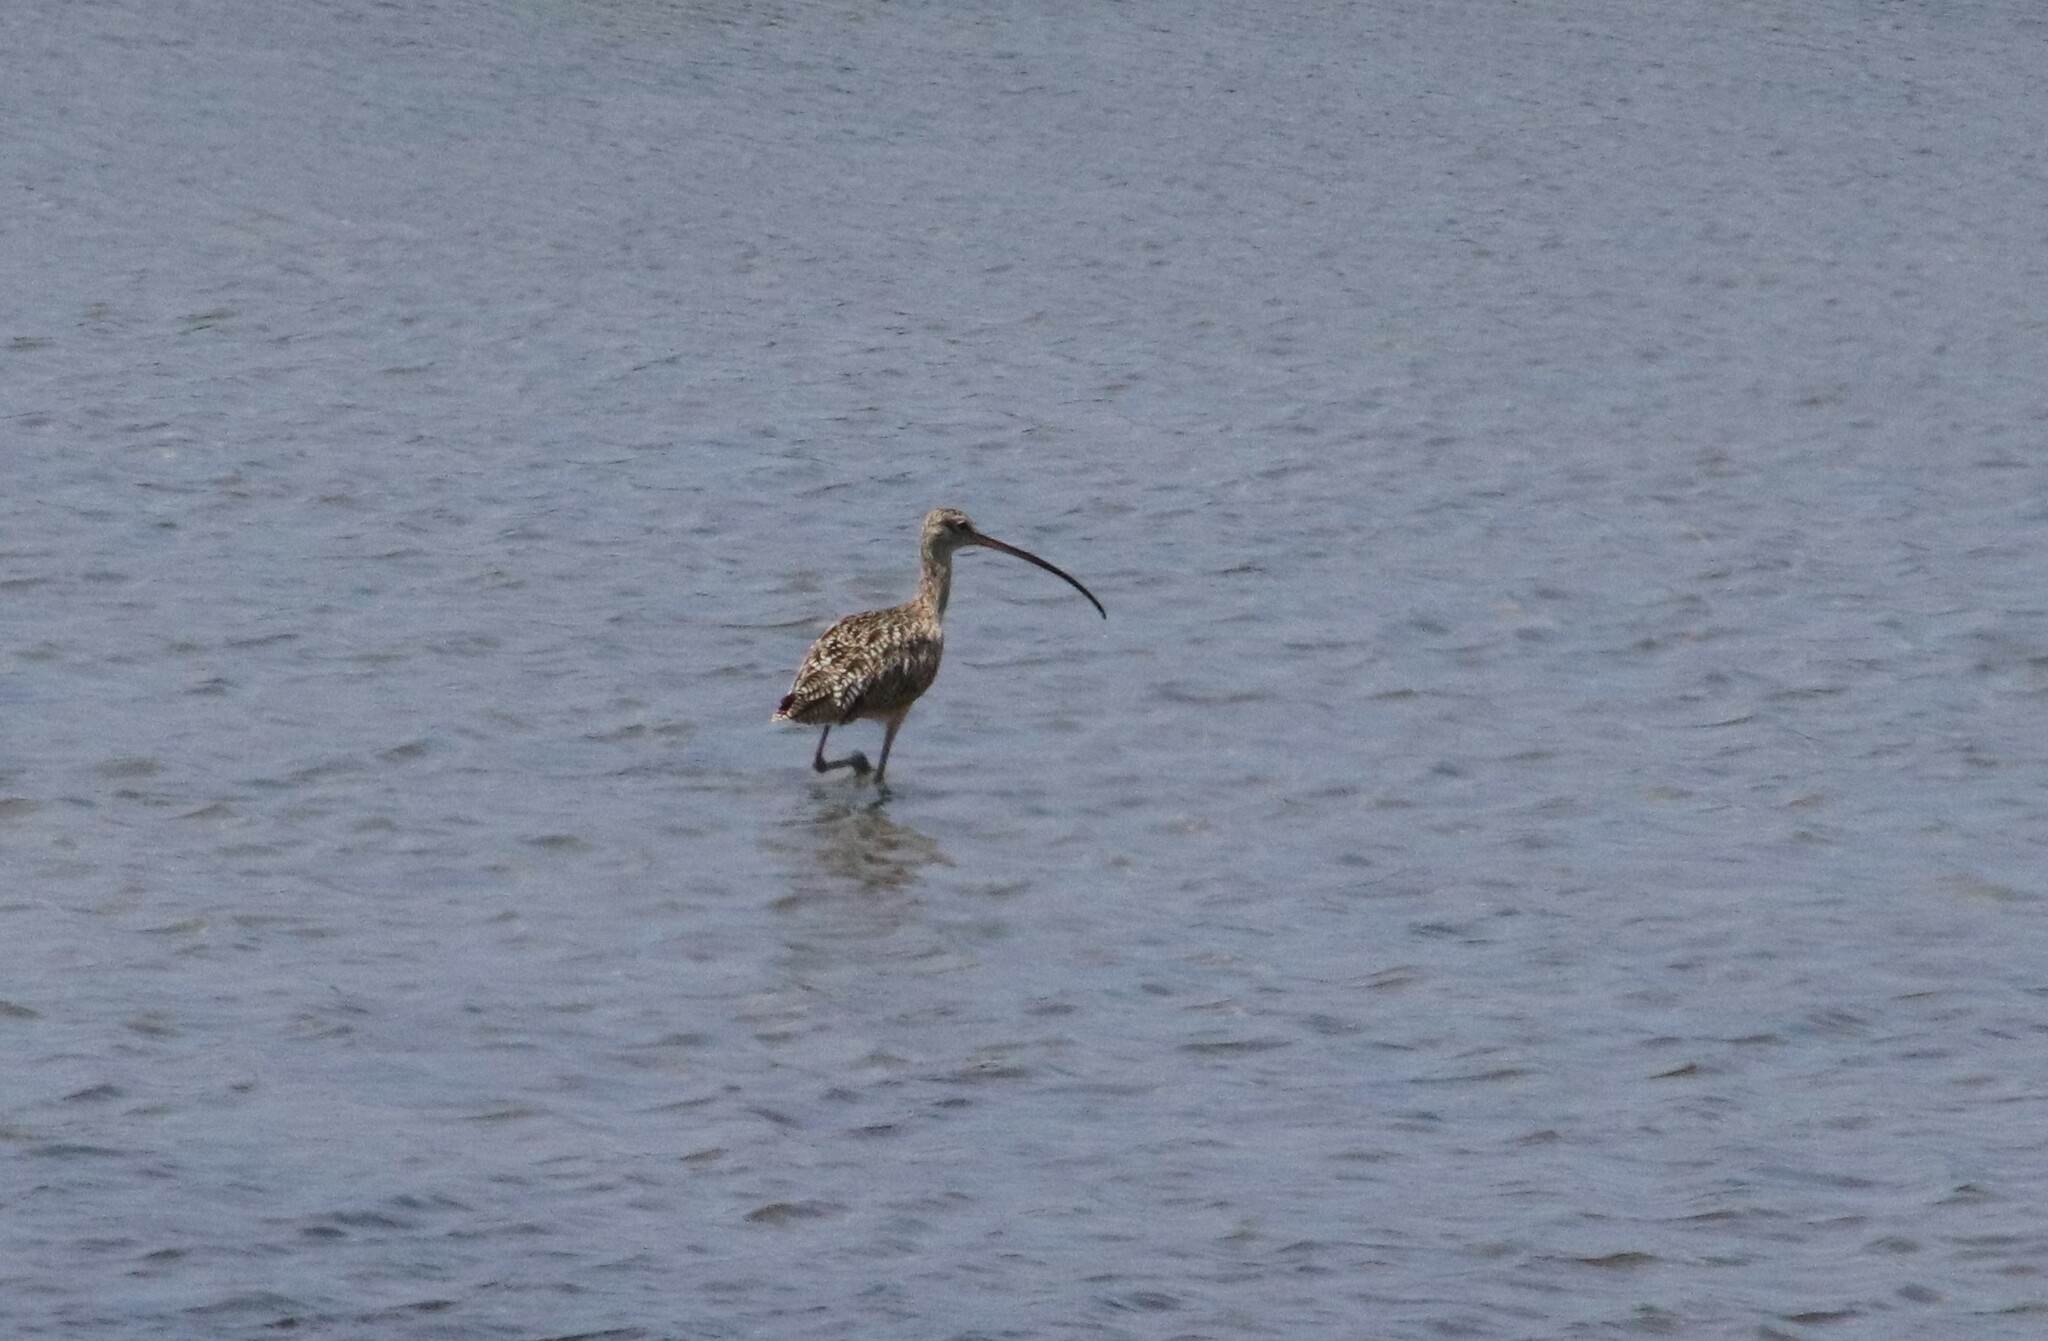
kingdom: Animalia
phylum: Chordata
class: Aves
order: Charadriiformes
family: Scolopacidae
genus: Numenius
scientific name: Numenius americanus
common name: Long-billed curlew
